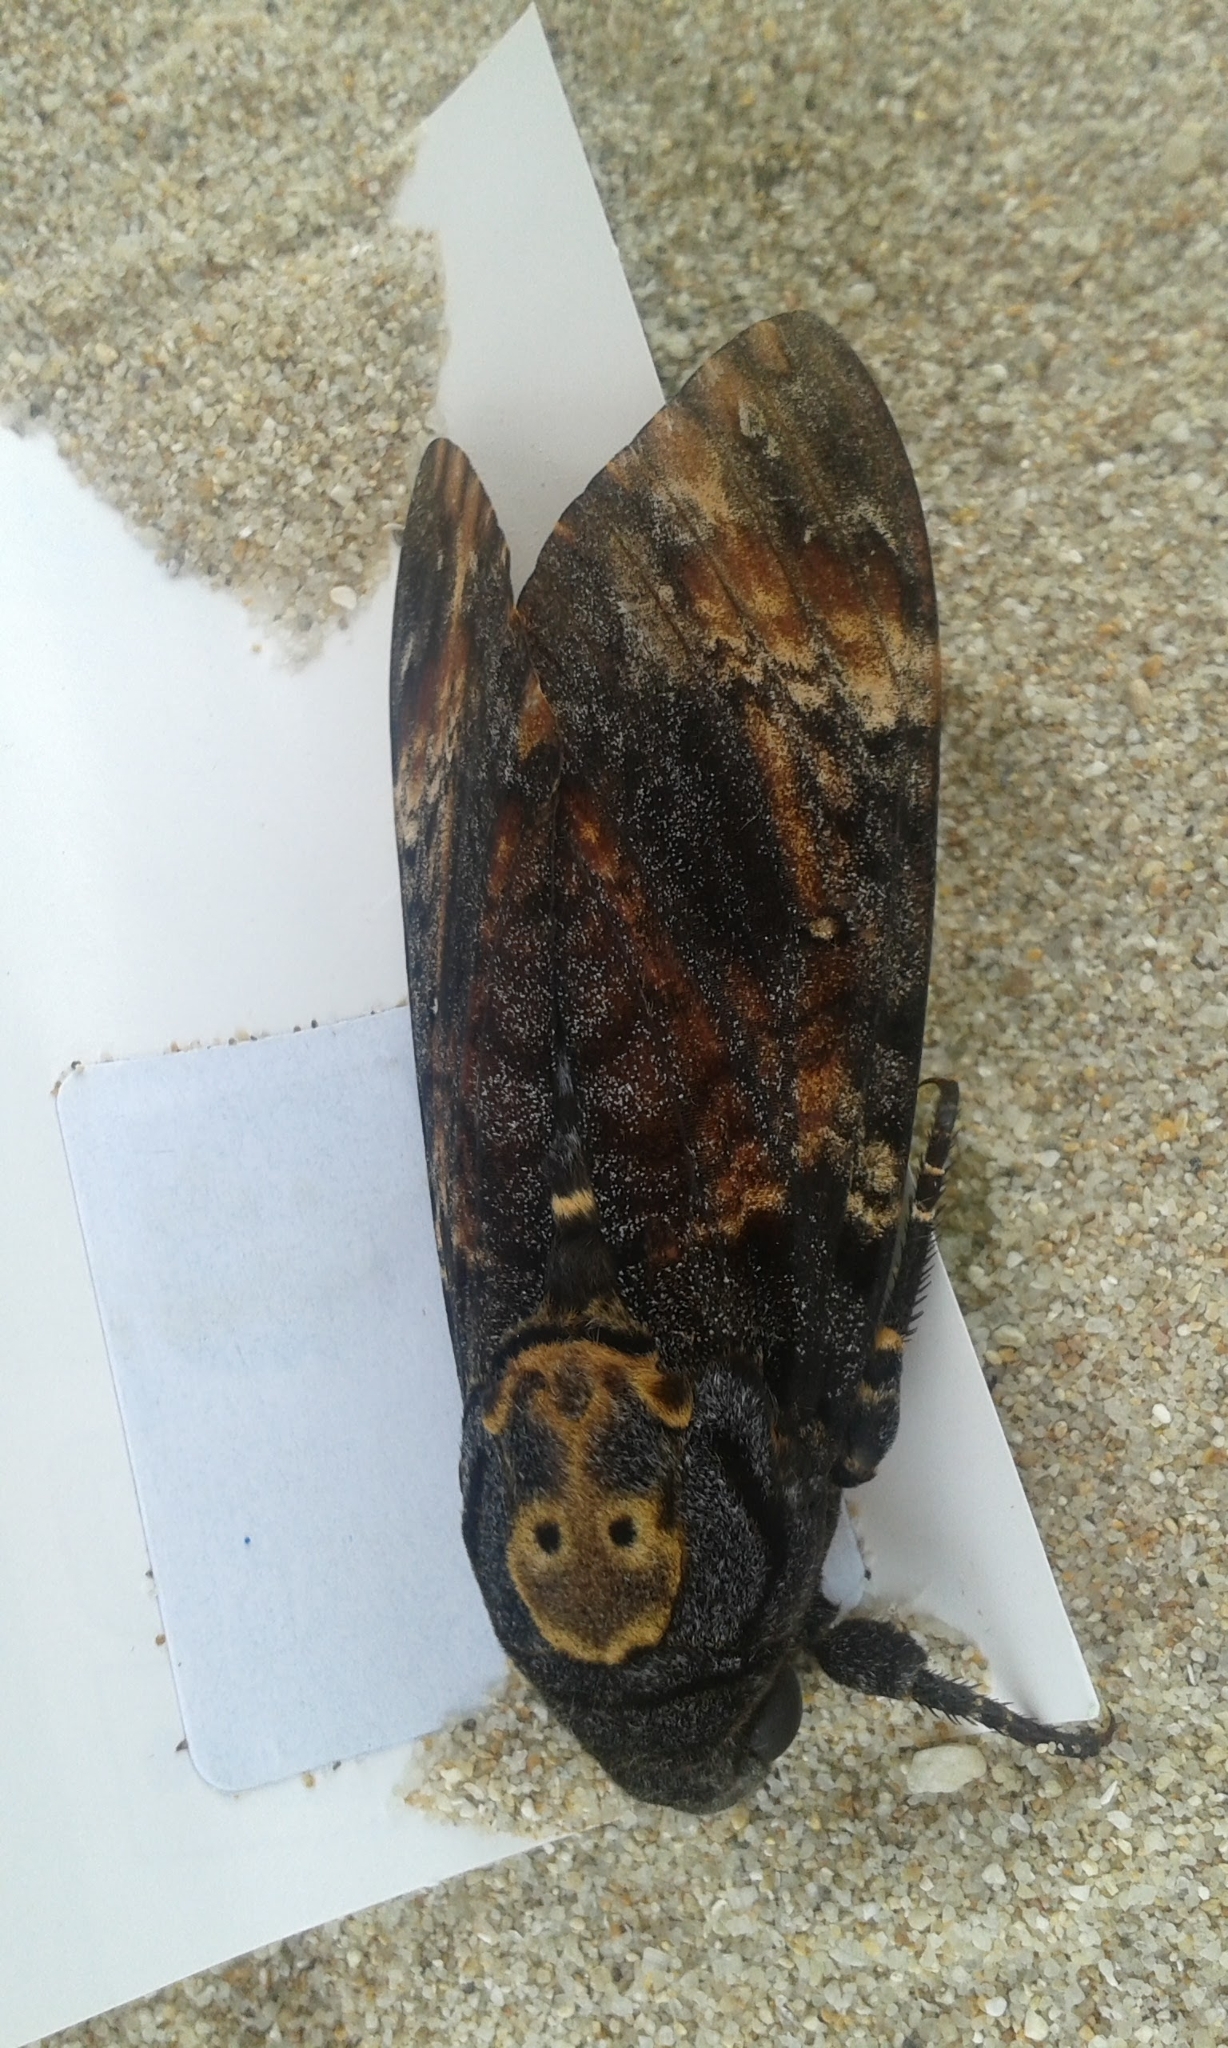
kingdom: Animalia
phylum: Arthropoda
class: Insecta
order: Lepidoptera
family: Sphingidae
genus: Acherontia
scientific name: Acherontia atropos
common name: Death's-head hawk moth
